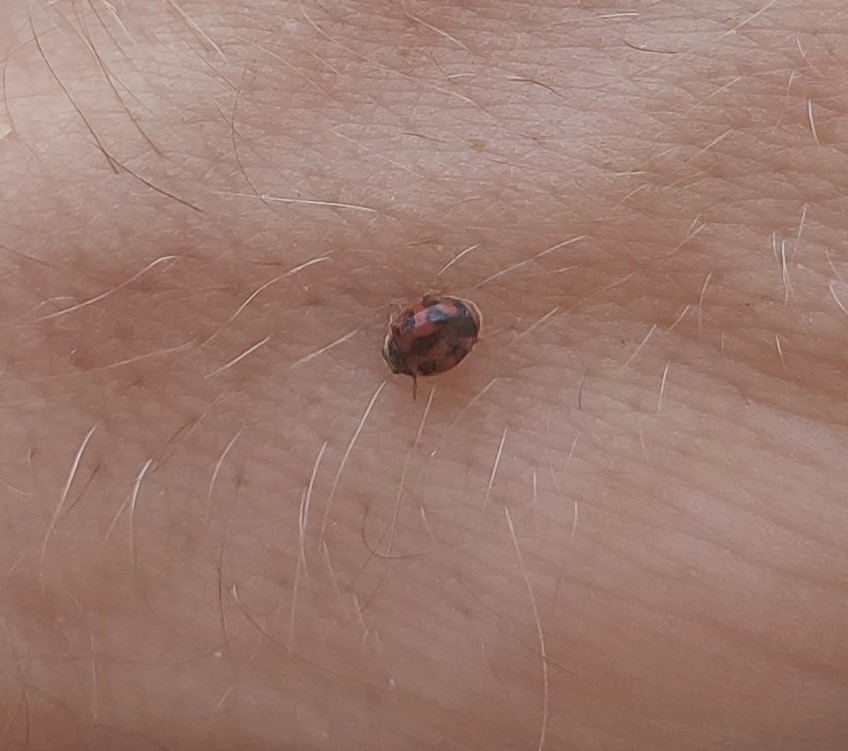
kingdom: Animalia
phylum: Arthropoda
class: Insecta
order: Coleoptera
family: Coccinellidae
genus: Novius
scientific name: Novius cardinalis
